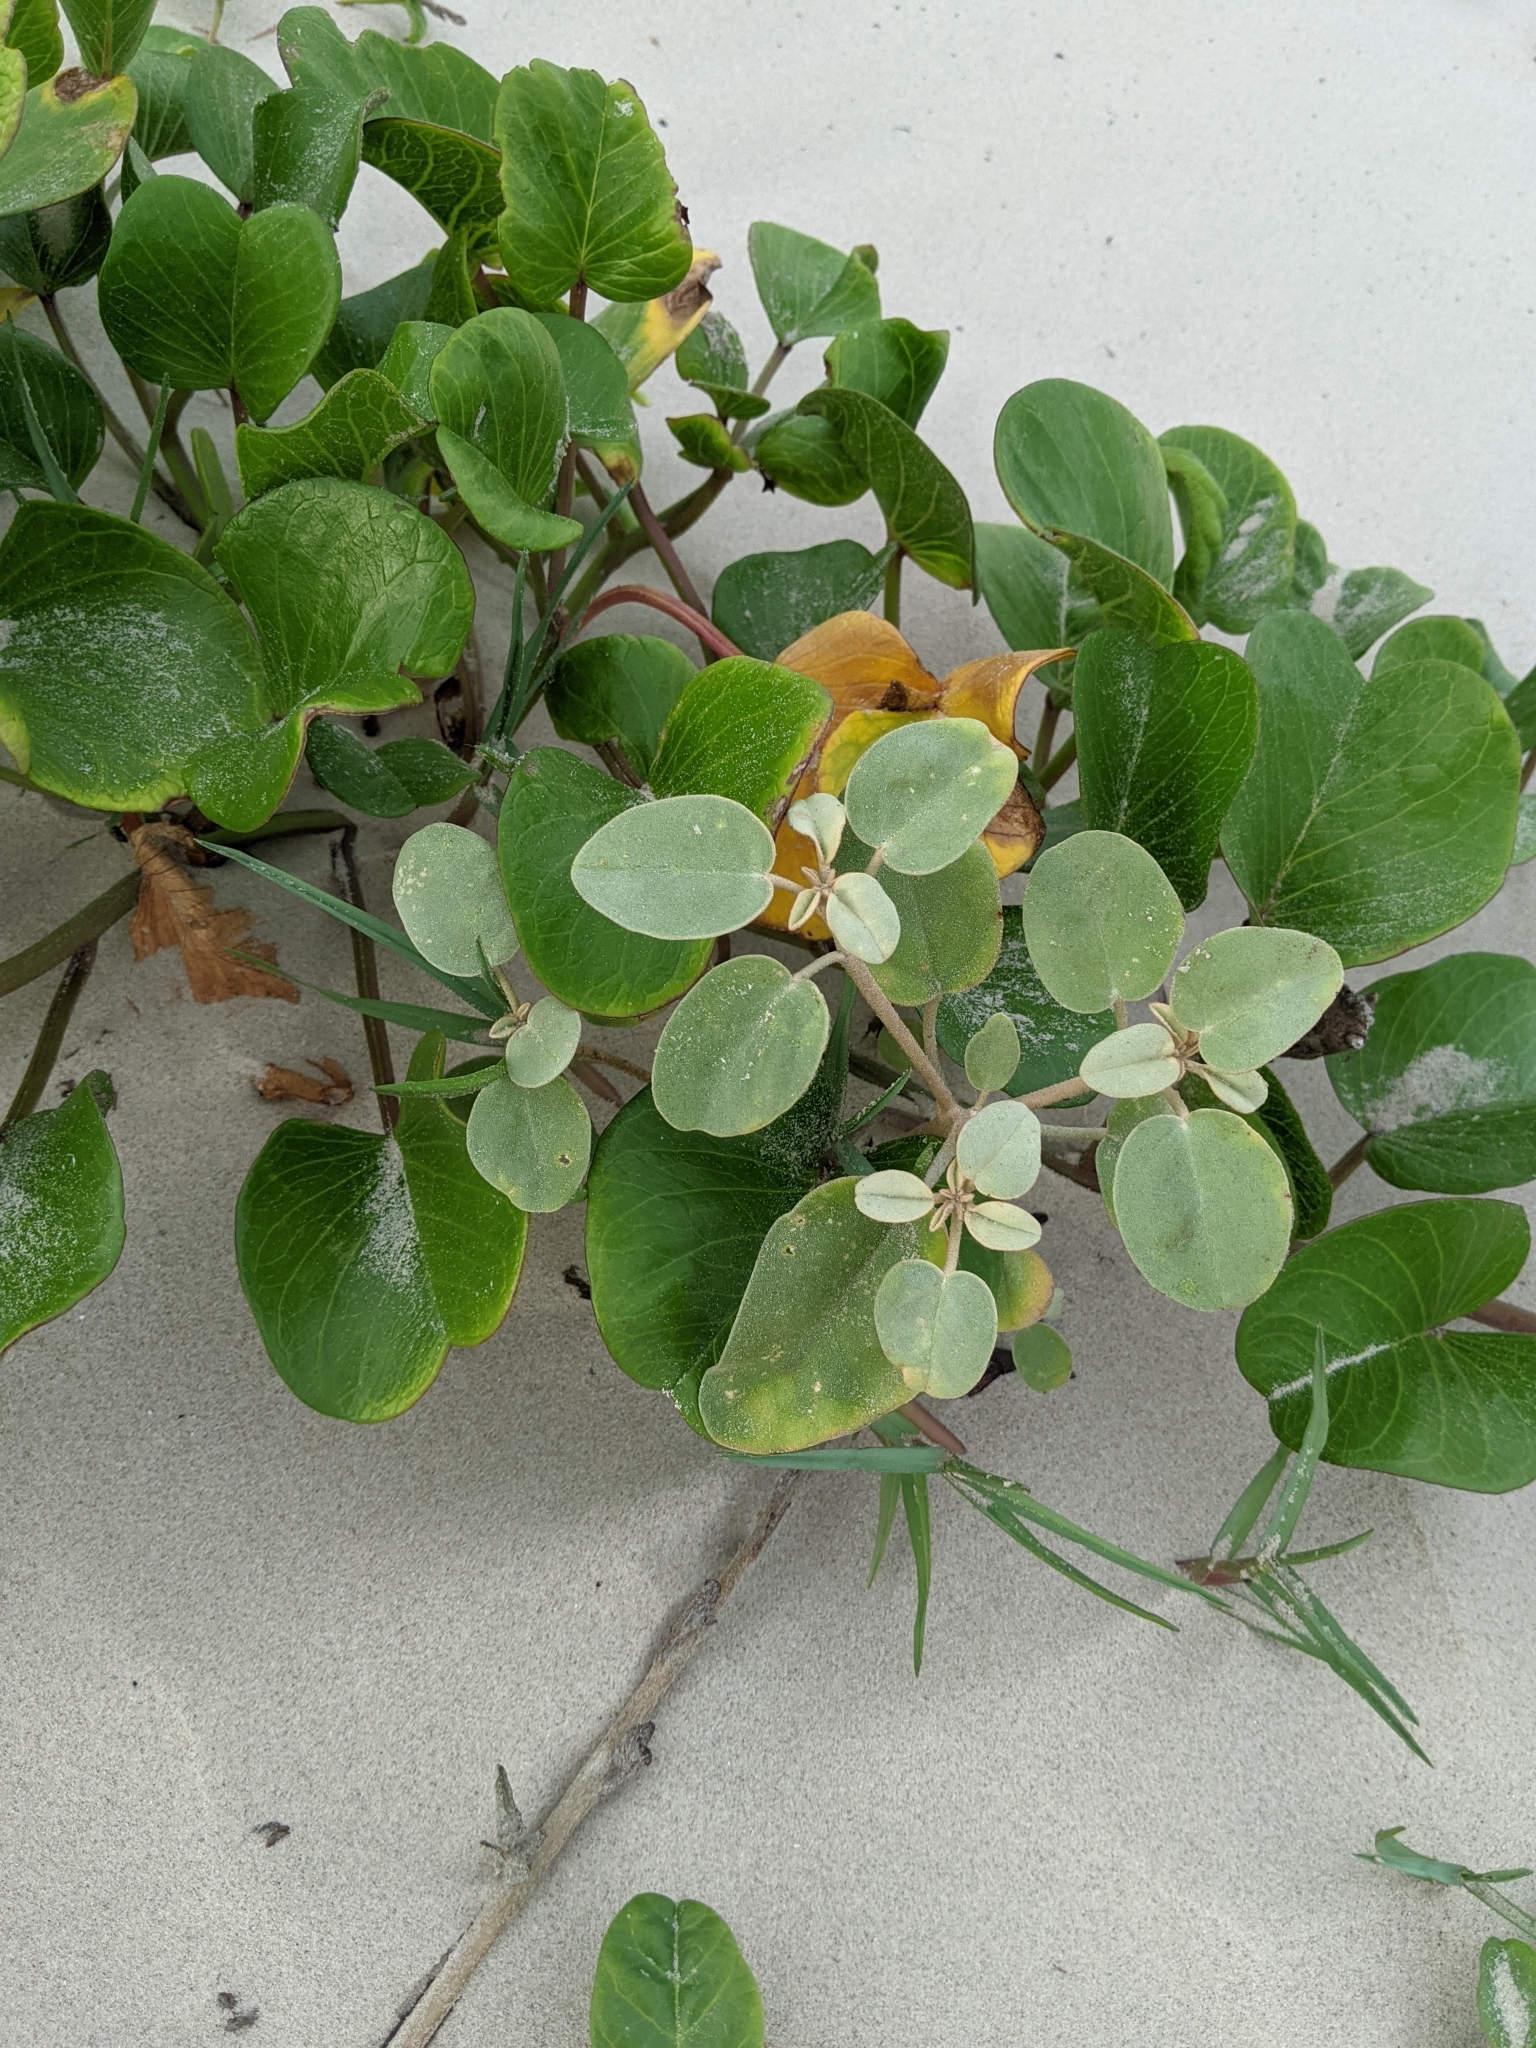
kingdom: Plantae
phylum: Tracheophyta
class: Magnoliopsida
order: Malpighiales
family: Euphorbiaceae
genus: Croton
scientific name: Croton punctatus
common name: Beach-tea
